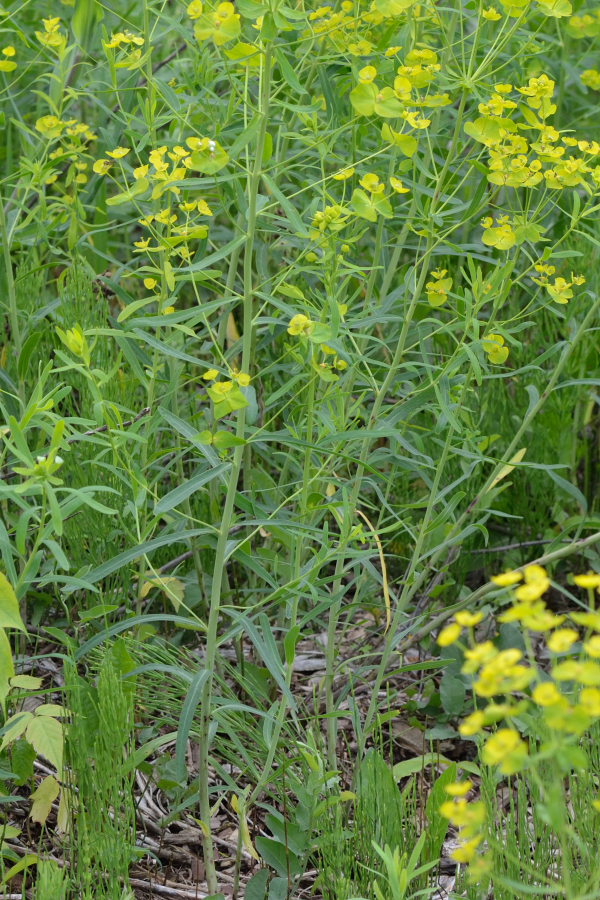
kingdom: Plantae
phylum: Tracheophyta
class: Magnoliopsida
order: Malpighiales
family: Euphorbiaceae
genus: Euphorbia
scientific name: Euphorbia virgata
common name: Leafy spurge
